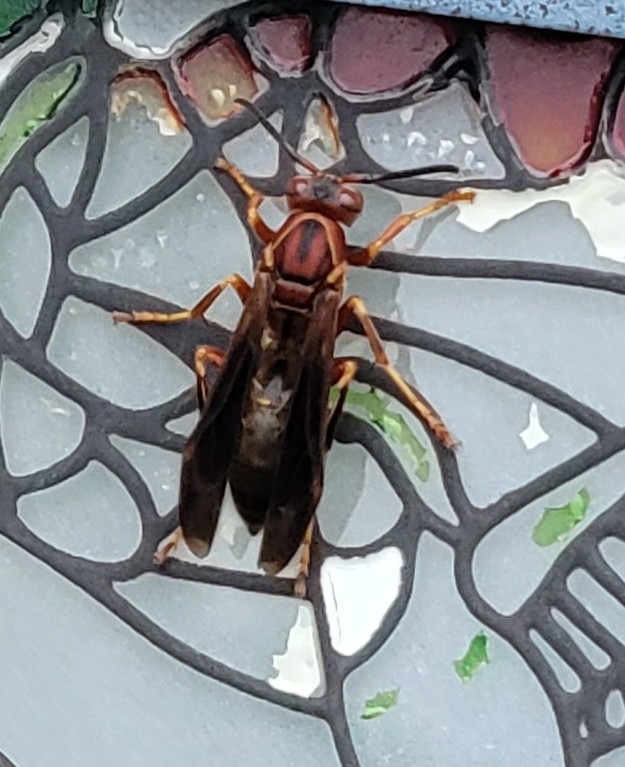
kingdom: Animalia
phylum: Arthropoda
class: Insecta
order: Hymenoptera
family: Eumenidae
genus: Polistes
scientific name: Polistes metricus
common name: Metric paper wasp
